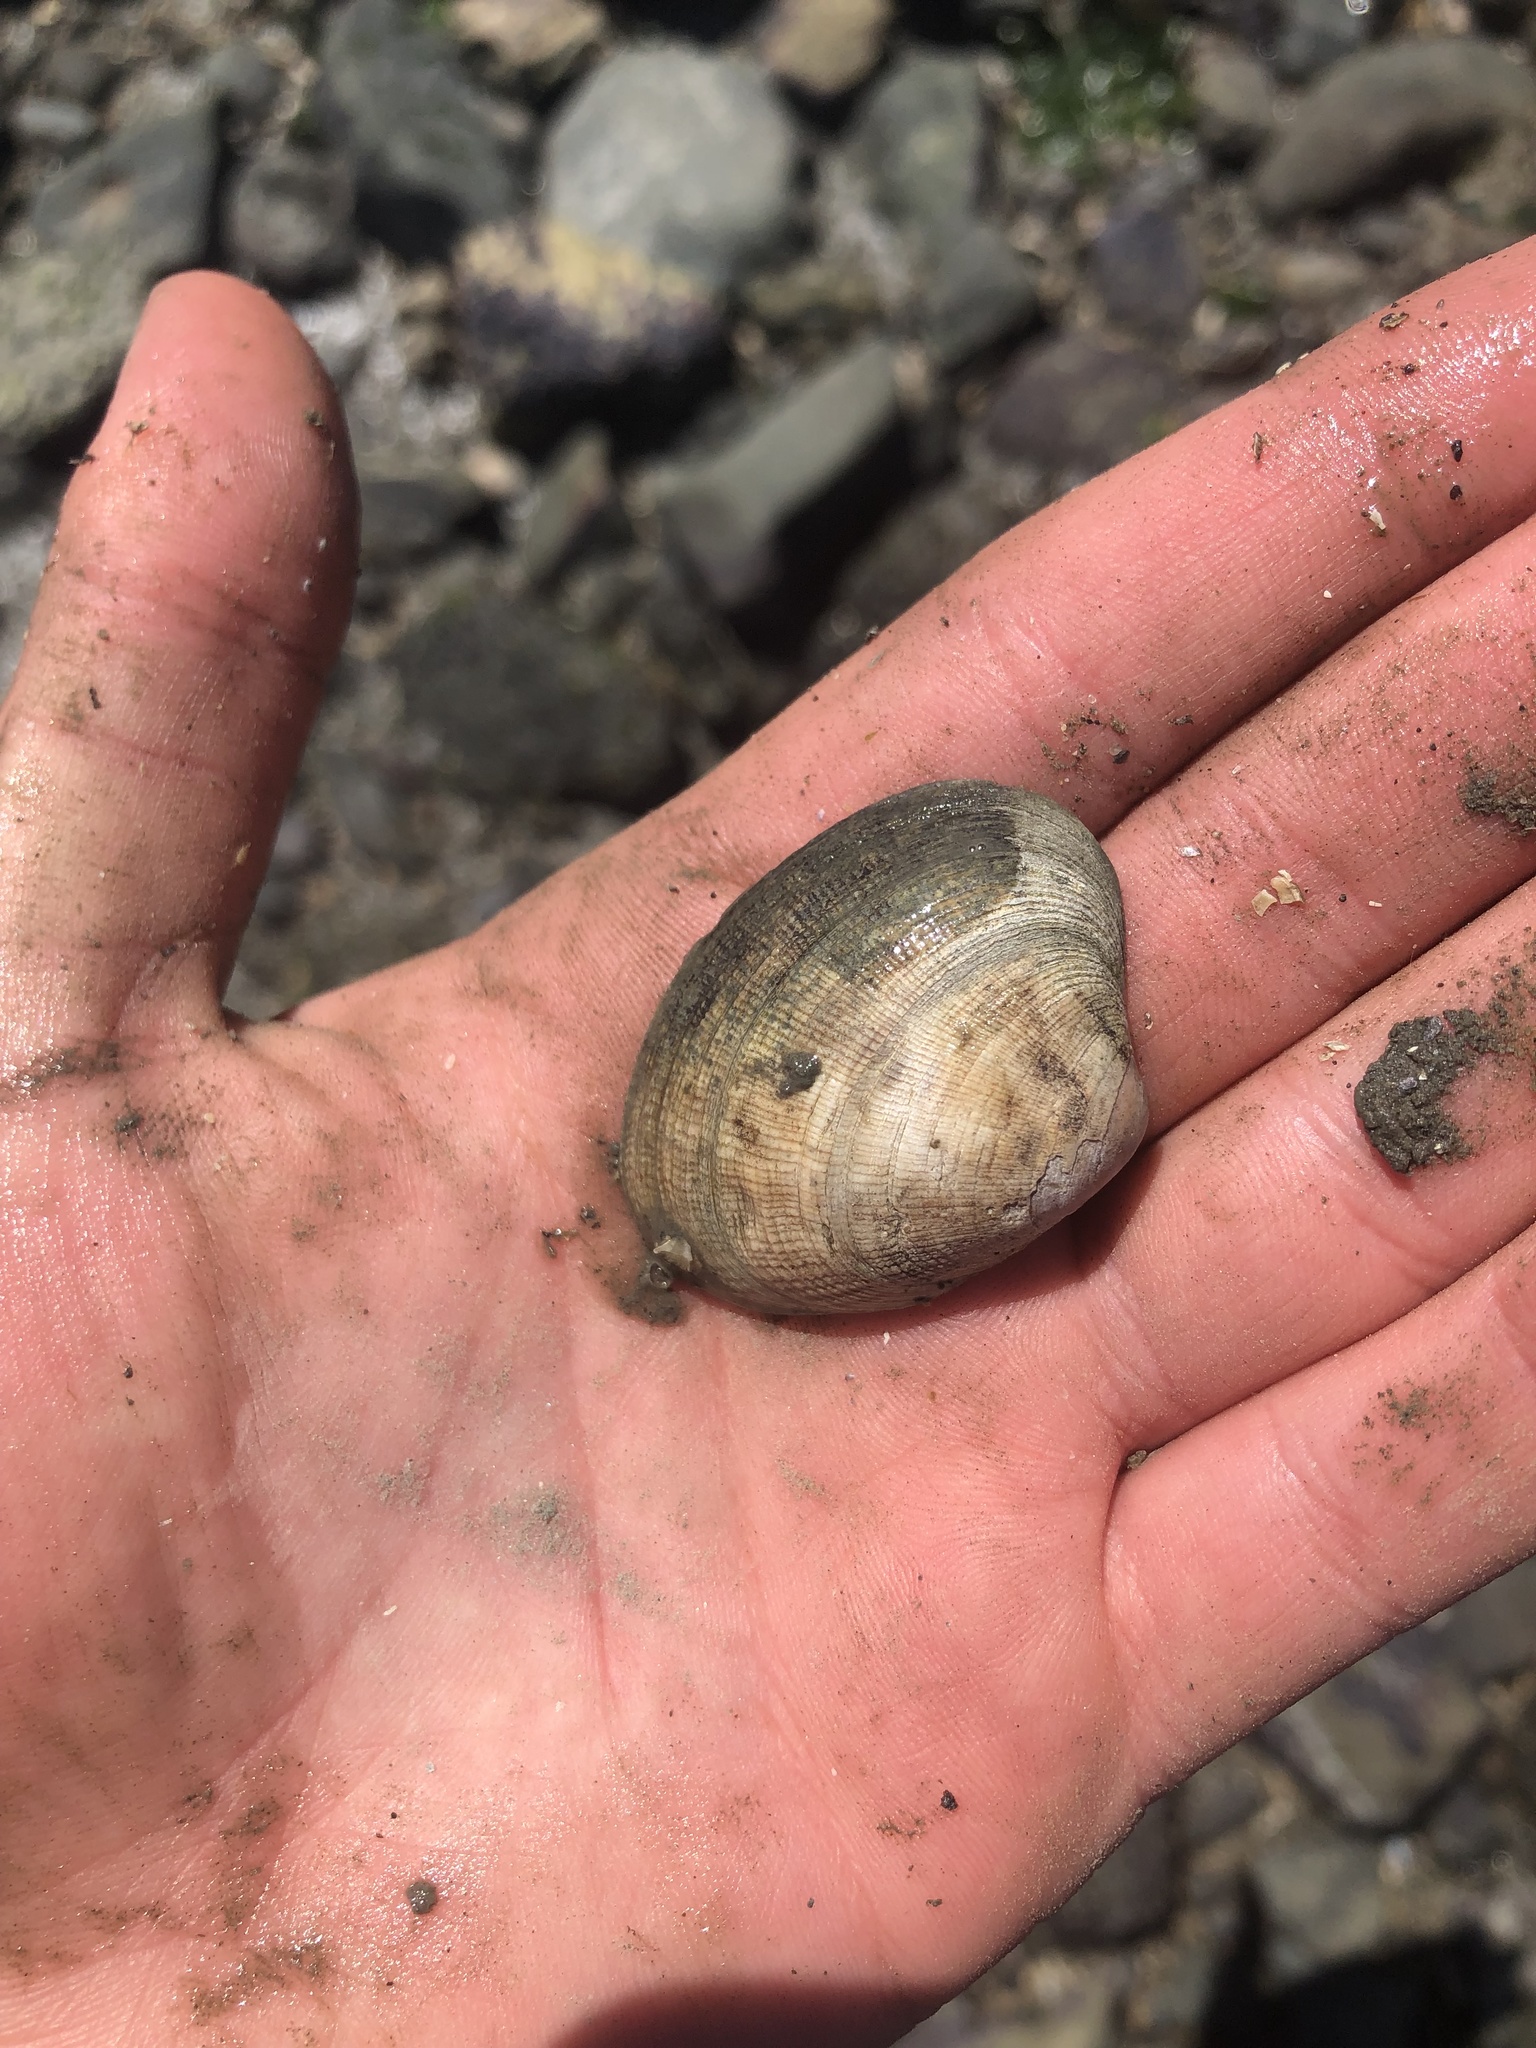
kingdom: Animalia
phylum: Mollusca
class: Bivalvia
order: Venerida
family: Veneridae
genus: Ruditapes
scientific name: Ruditapes philippinarum
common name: Manila clam
